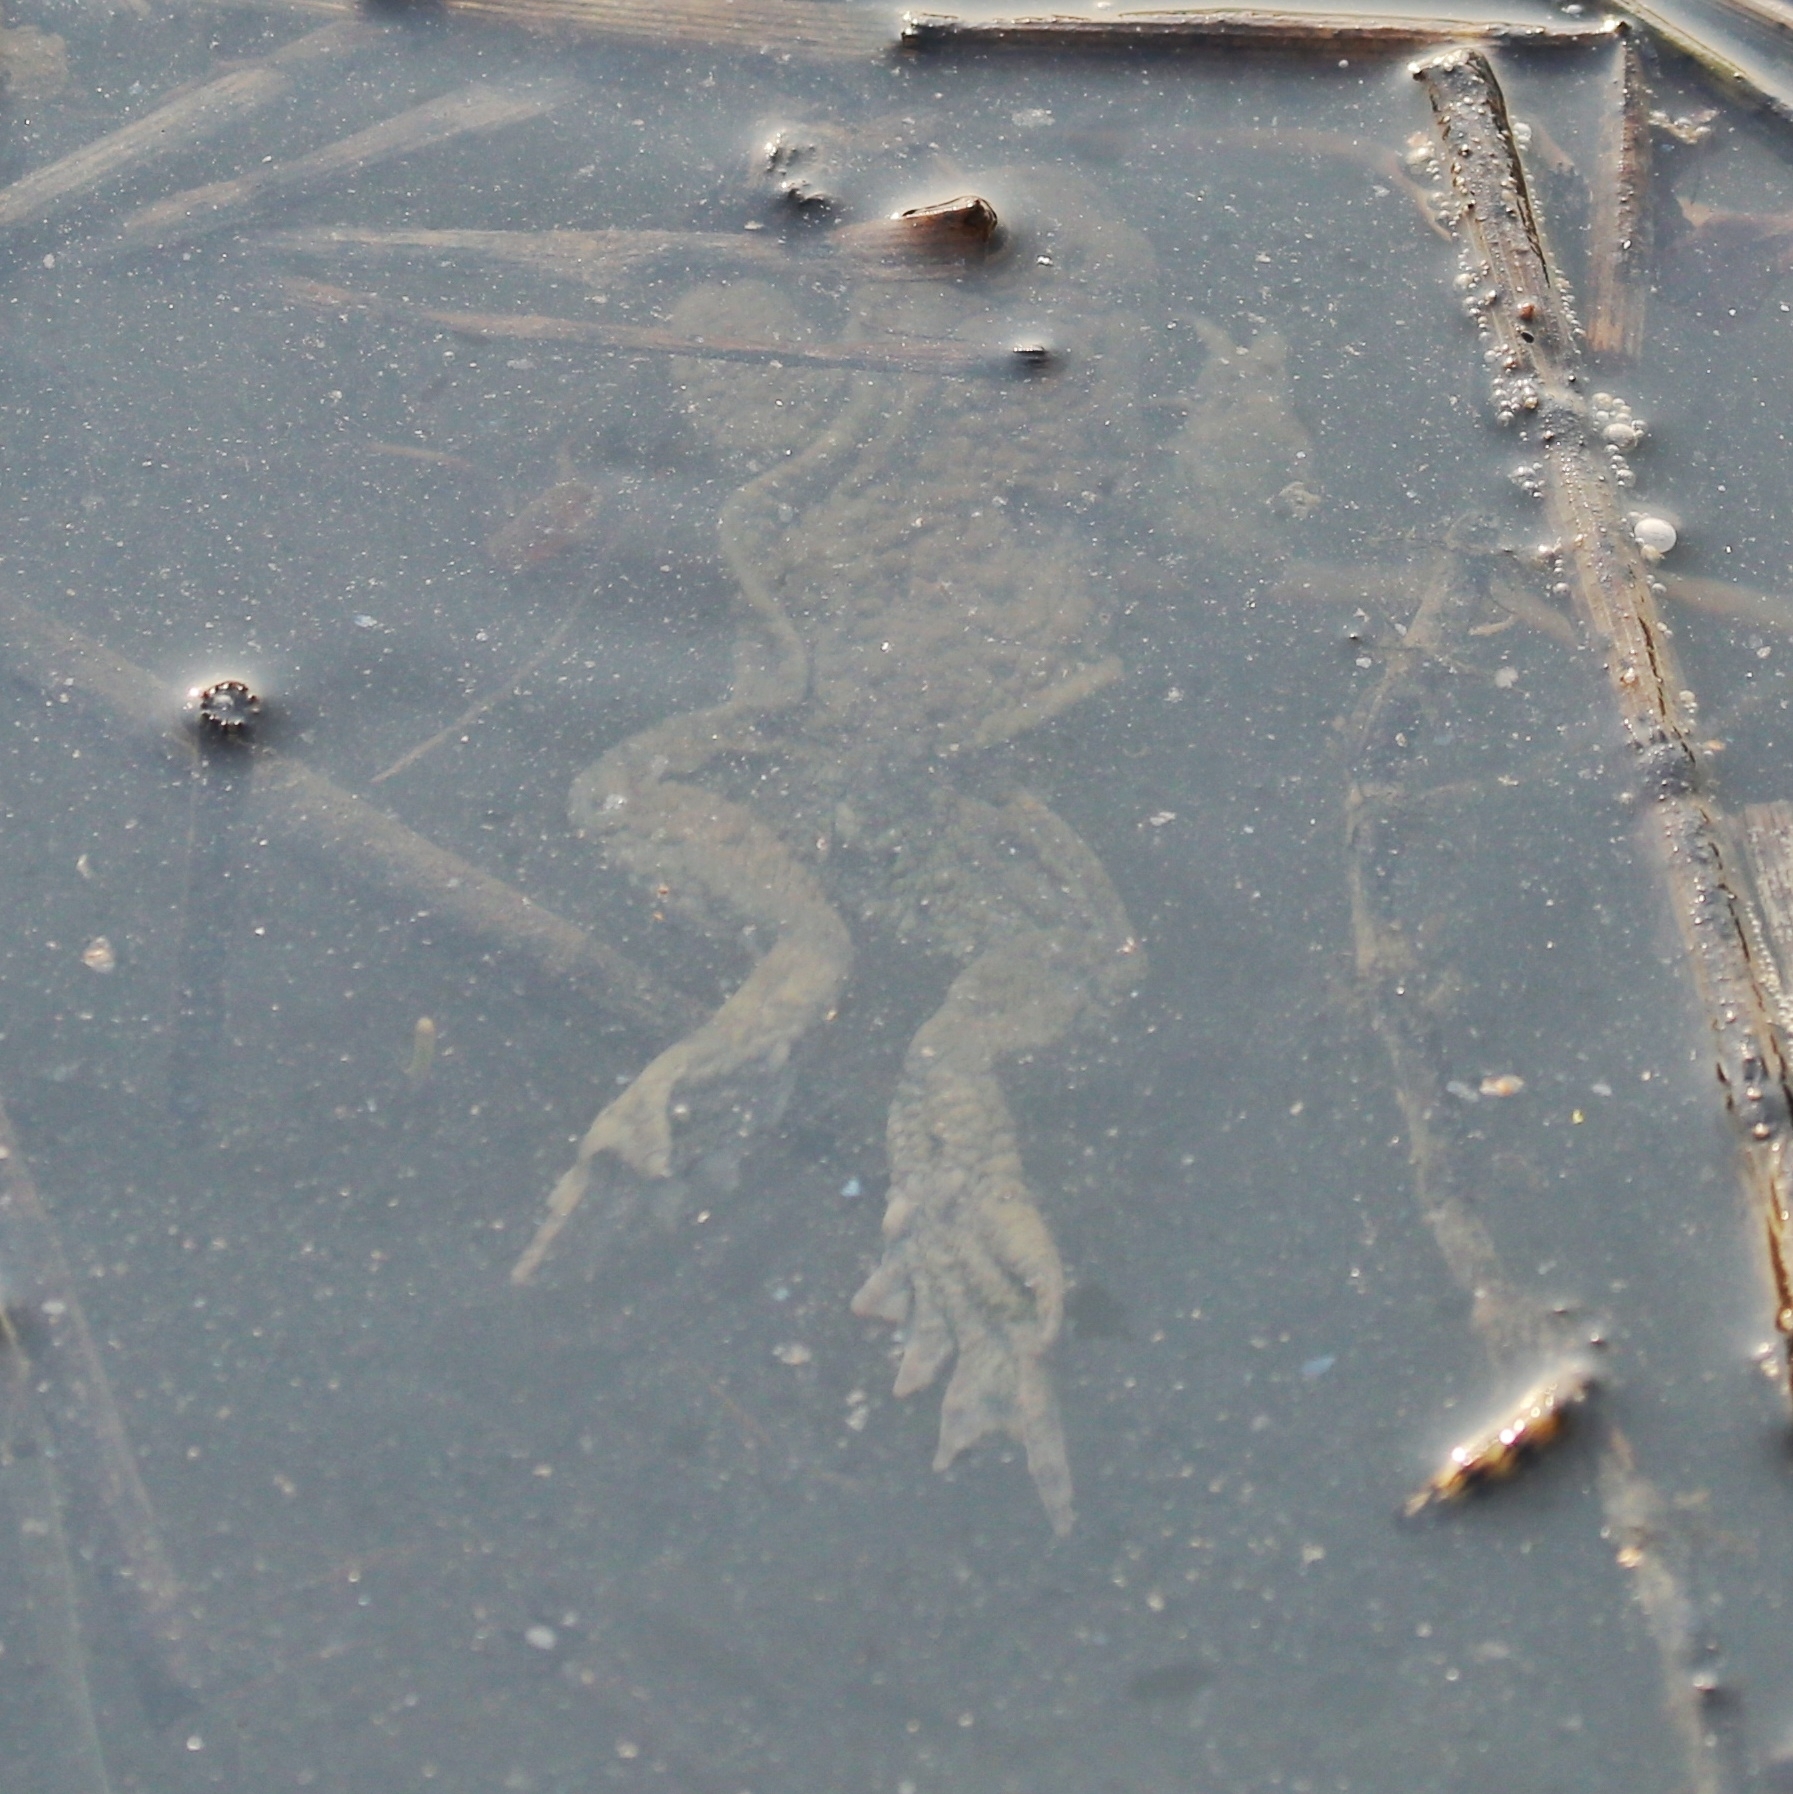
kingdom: Animalia
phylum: Chordata
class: Amphibia
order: Anura
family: Bufonidae
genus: Bufo
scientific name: Bufo bufo
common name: Common toad
